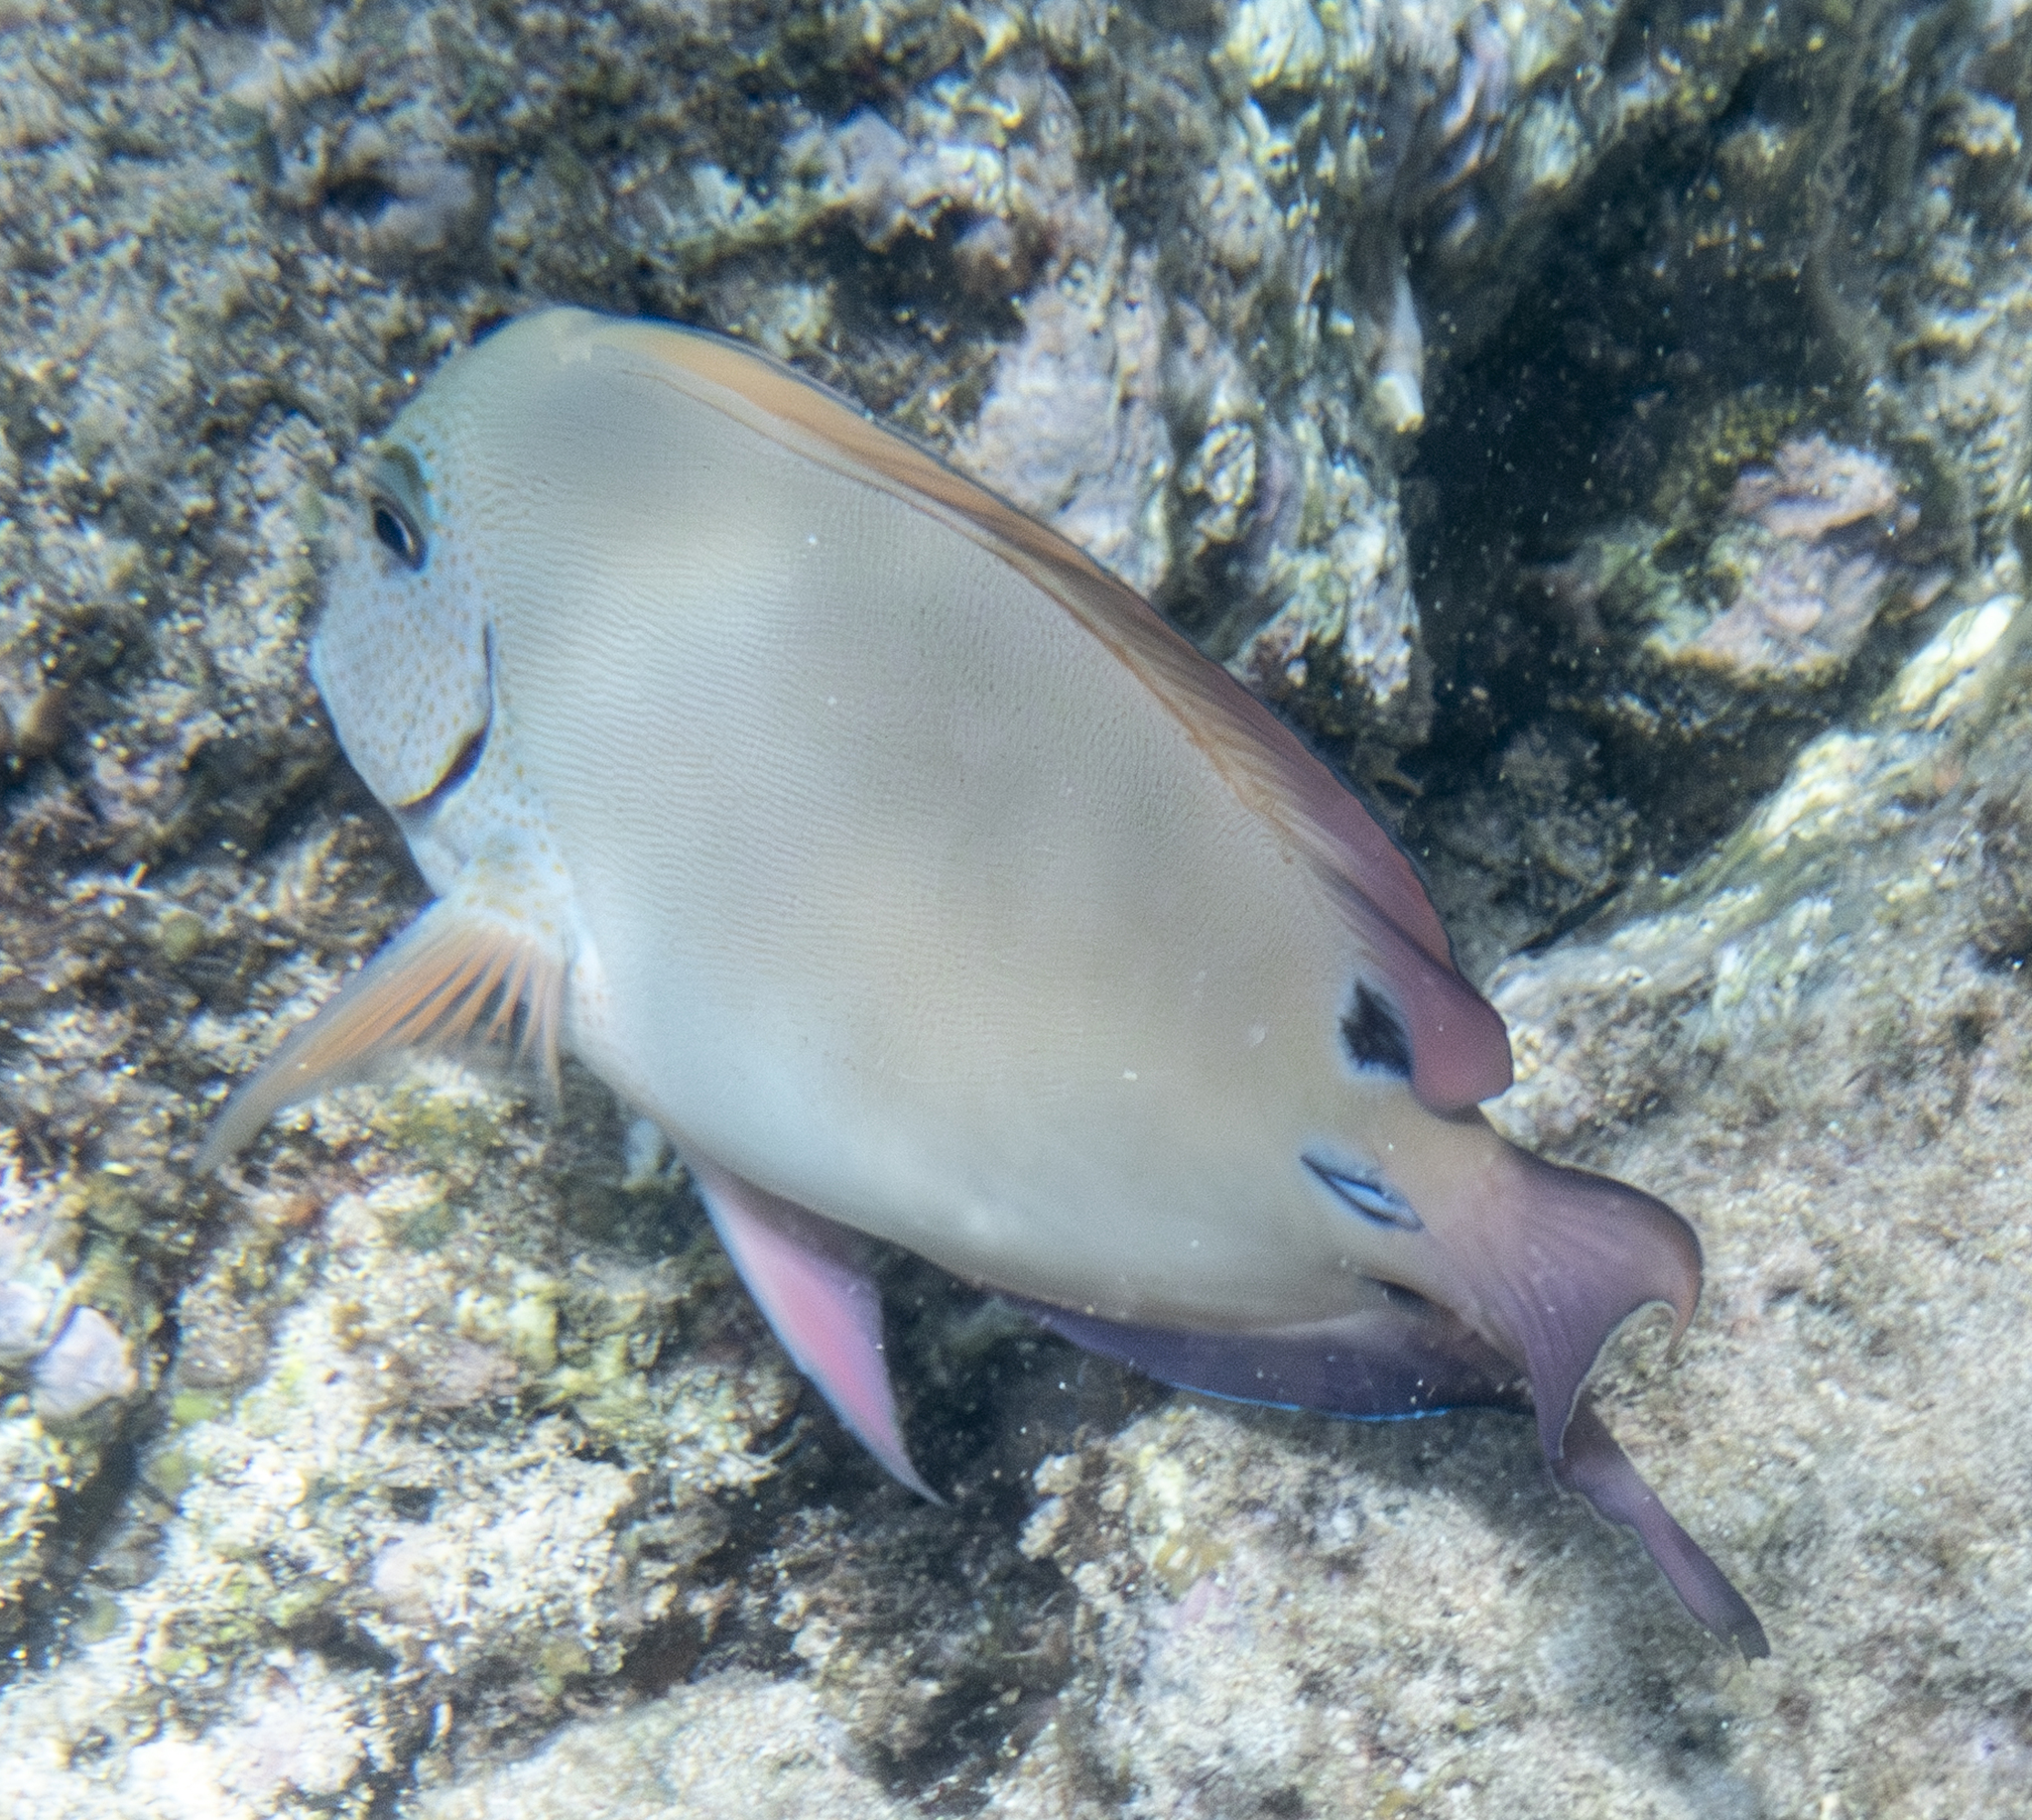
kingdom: Animalia
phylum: Chordata
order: Perciformes
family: Acanthuridae
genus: Acanthurus
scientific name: Acanthurus nigrofuscus
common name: Blackspot surgeonfish
